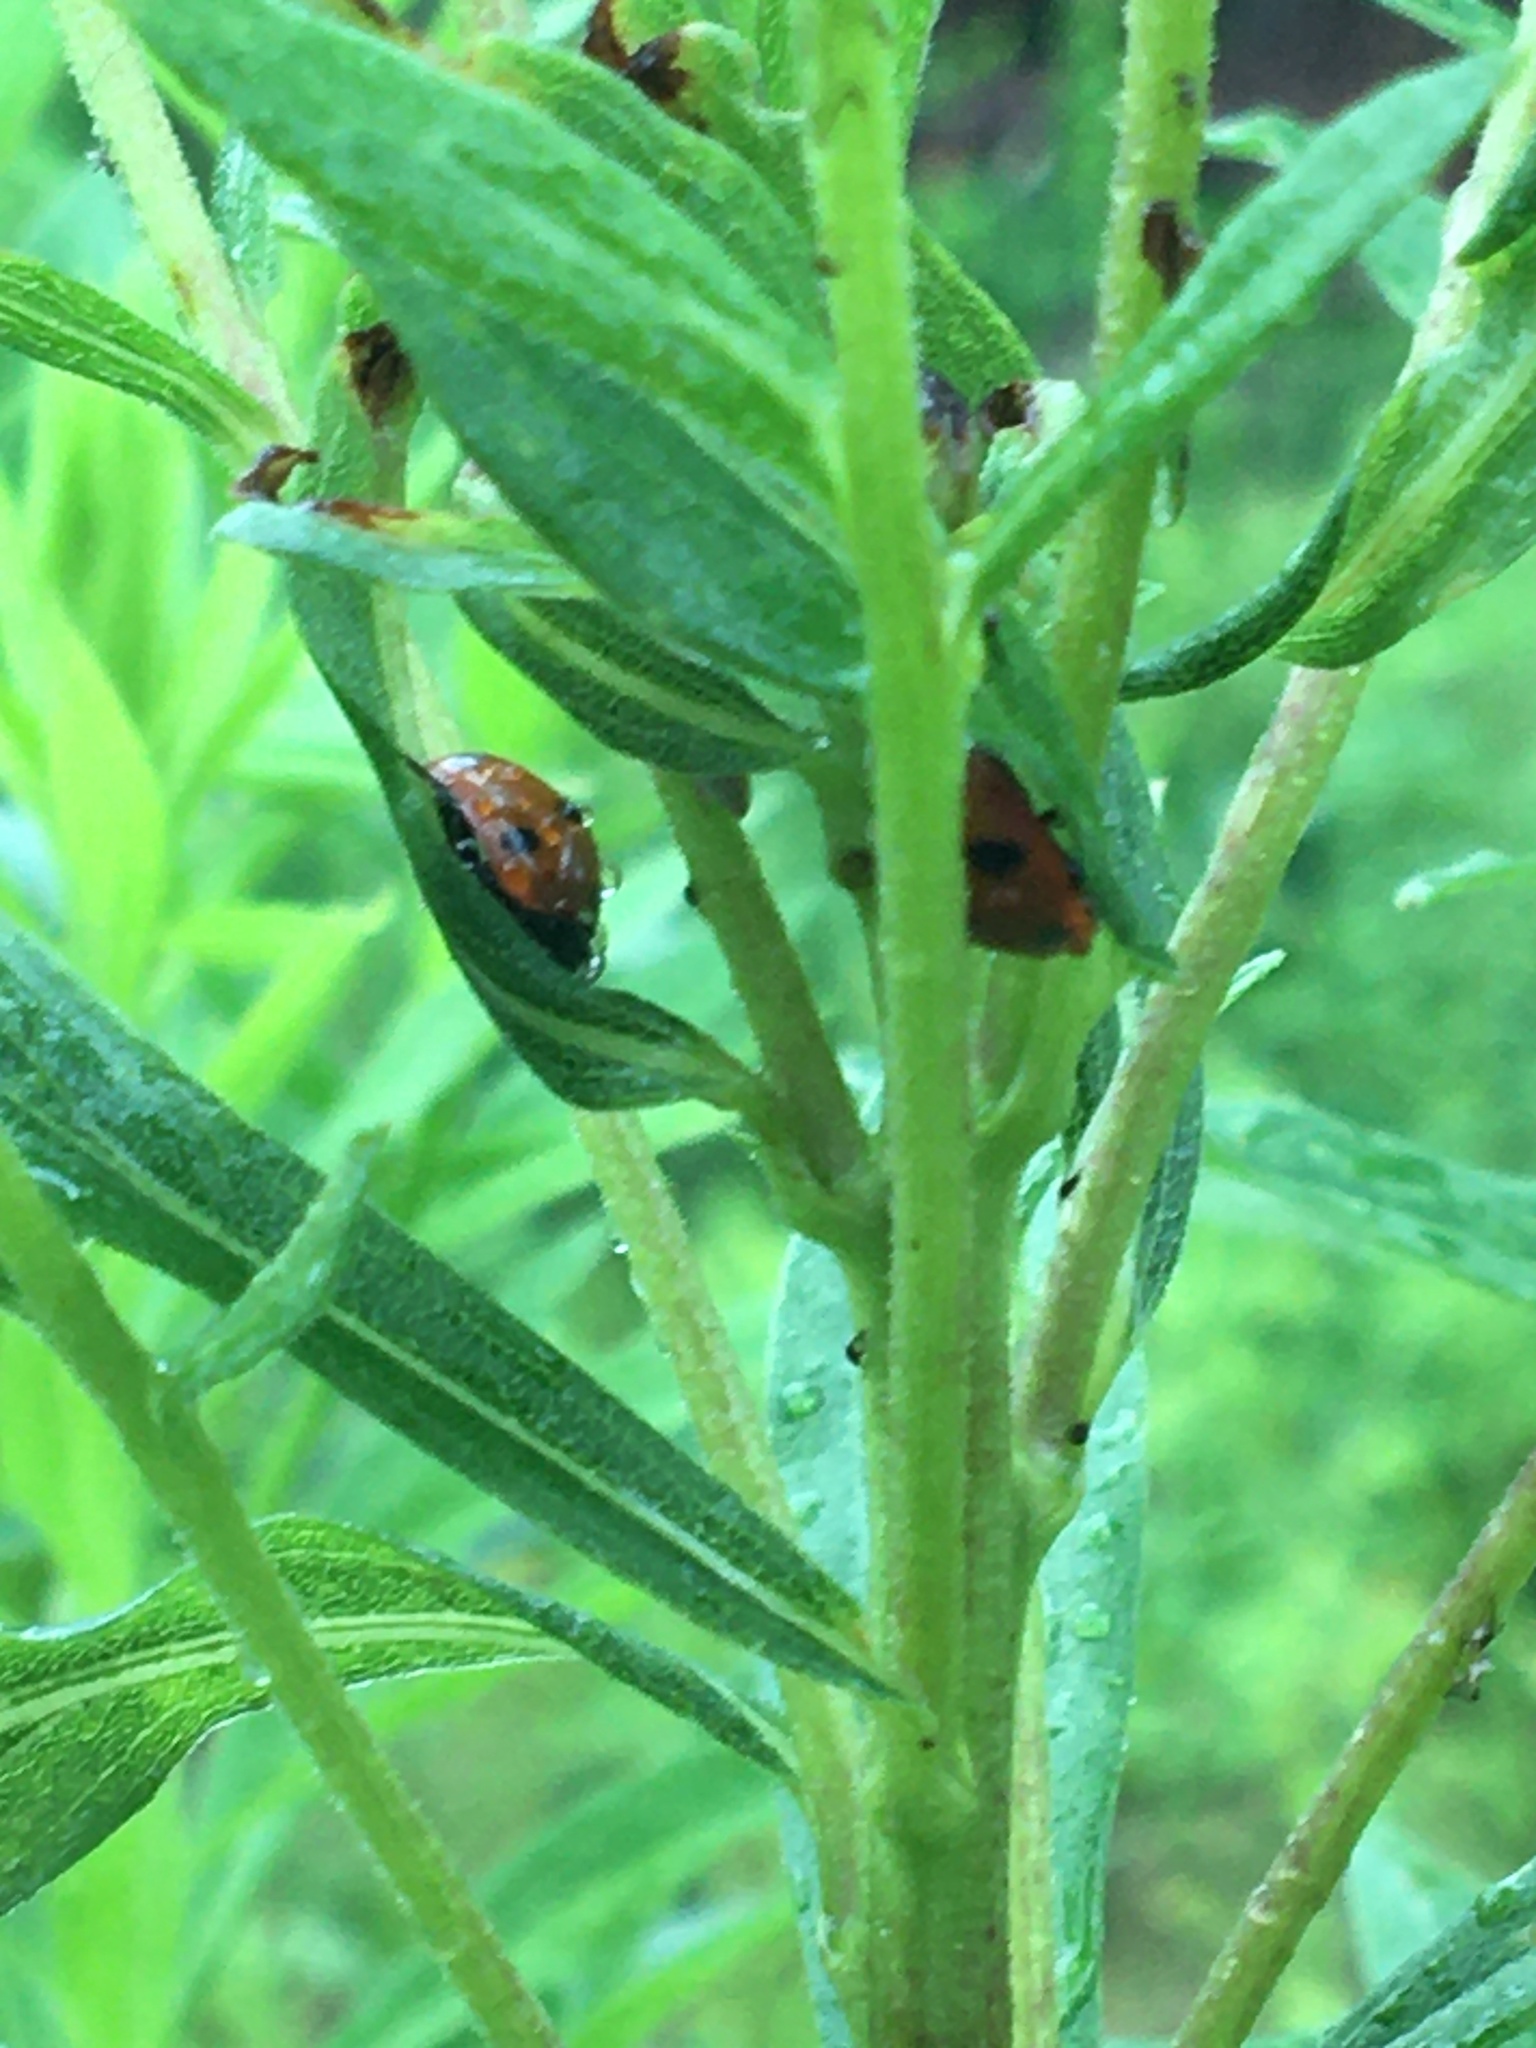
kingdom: Animalia
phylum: Arthropoda
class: Insecta
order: Coleoptera
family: Coccinellidae
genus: Coccinella
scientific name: Coccinella septempunctata
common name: Sevenspotted lady beetle
